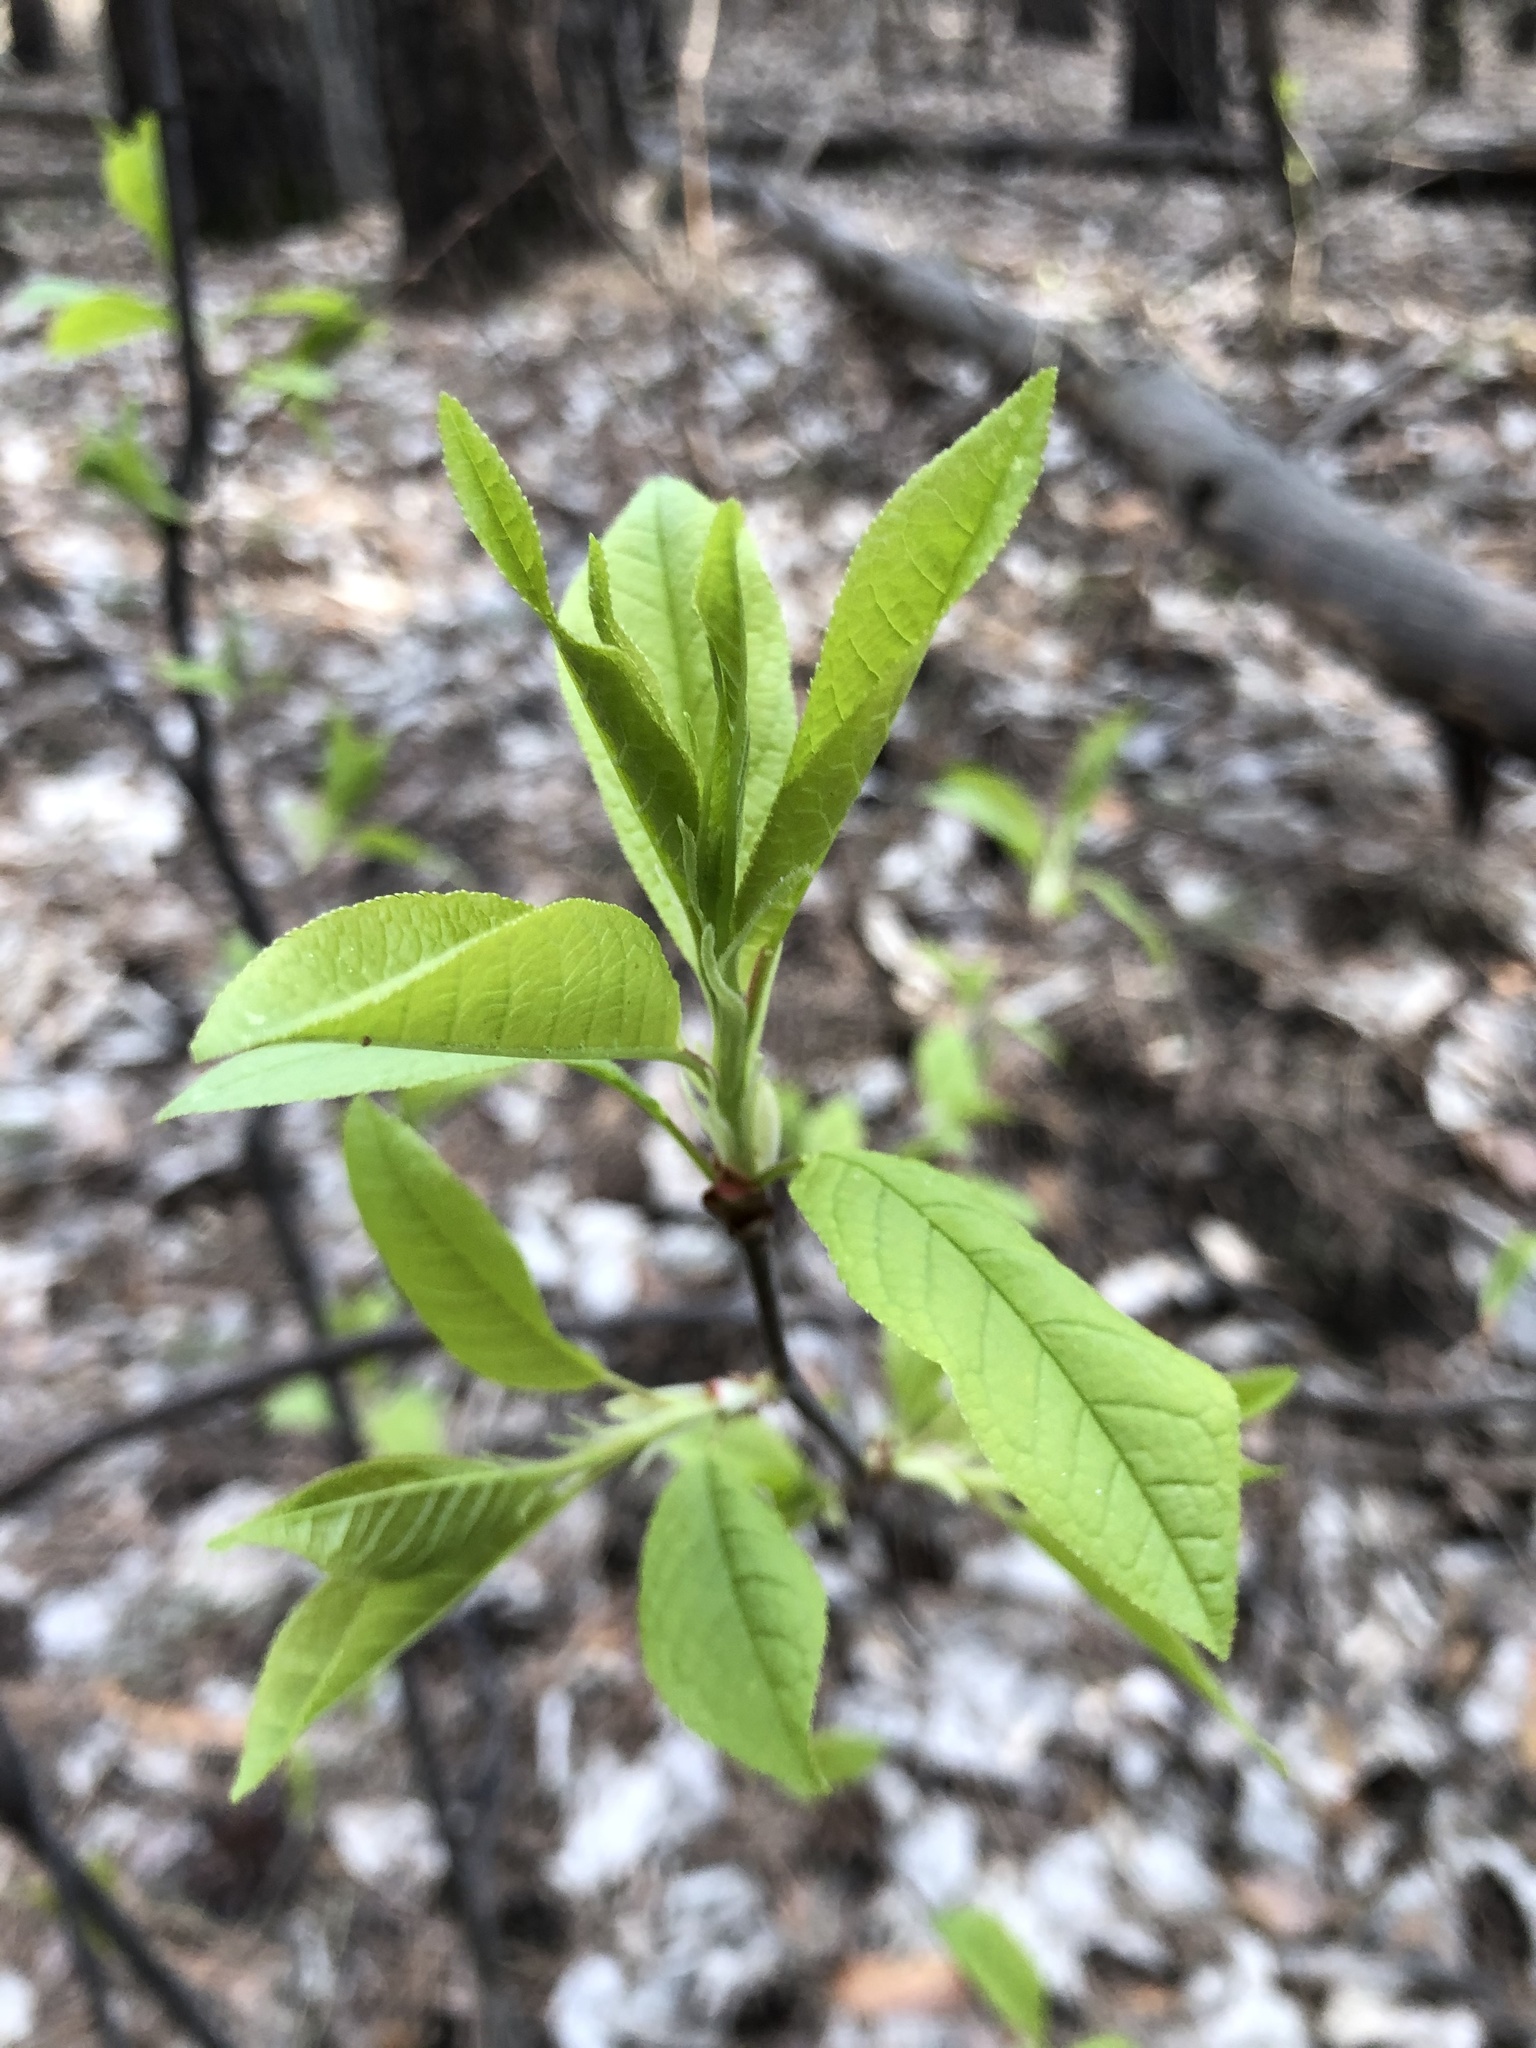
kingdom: Plantae
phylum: Tracheophyta
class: Magnoliopsida
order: Rosales
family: Rosaceae
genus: Prunus
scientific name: Prunus padus
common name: Bird cherry
